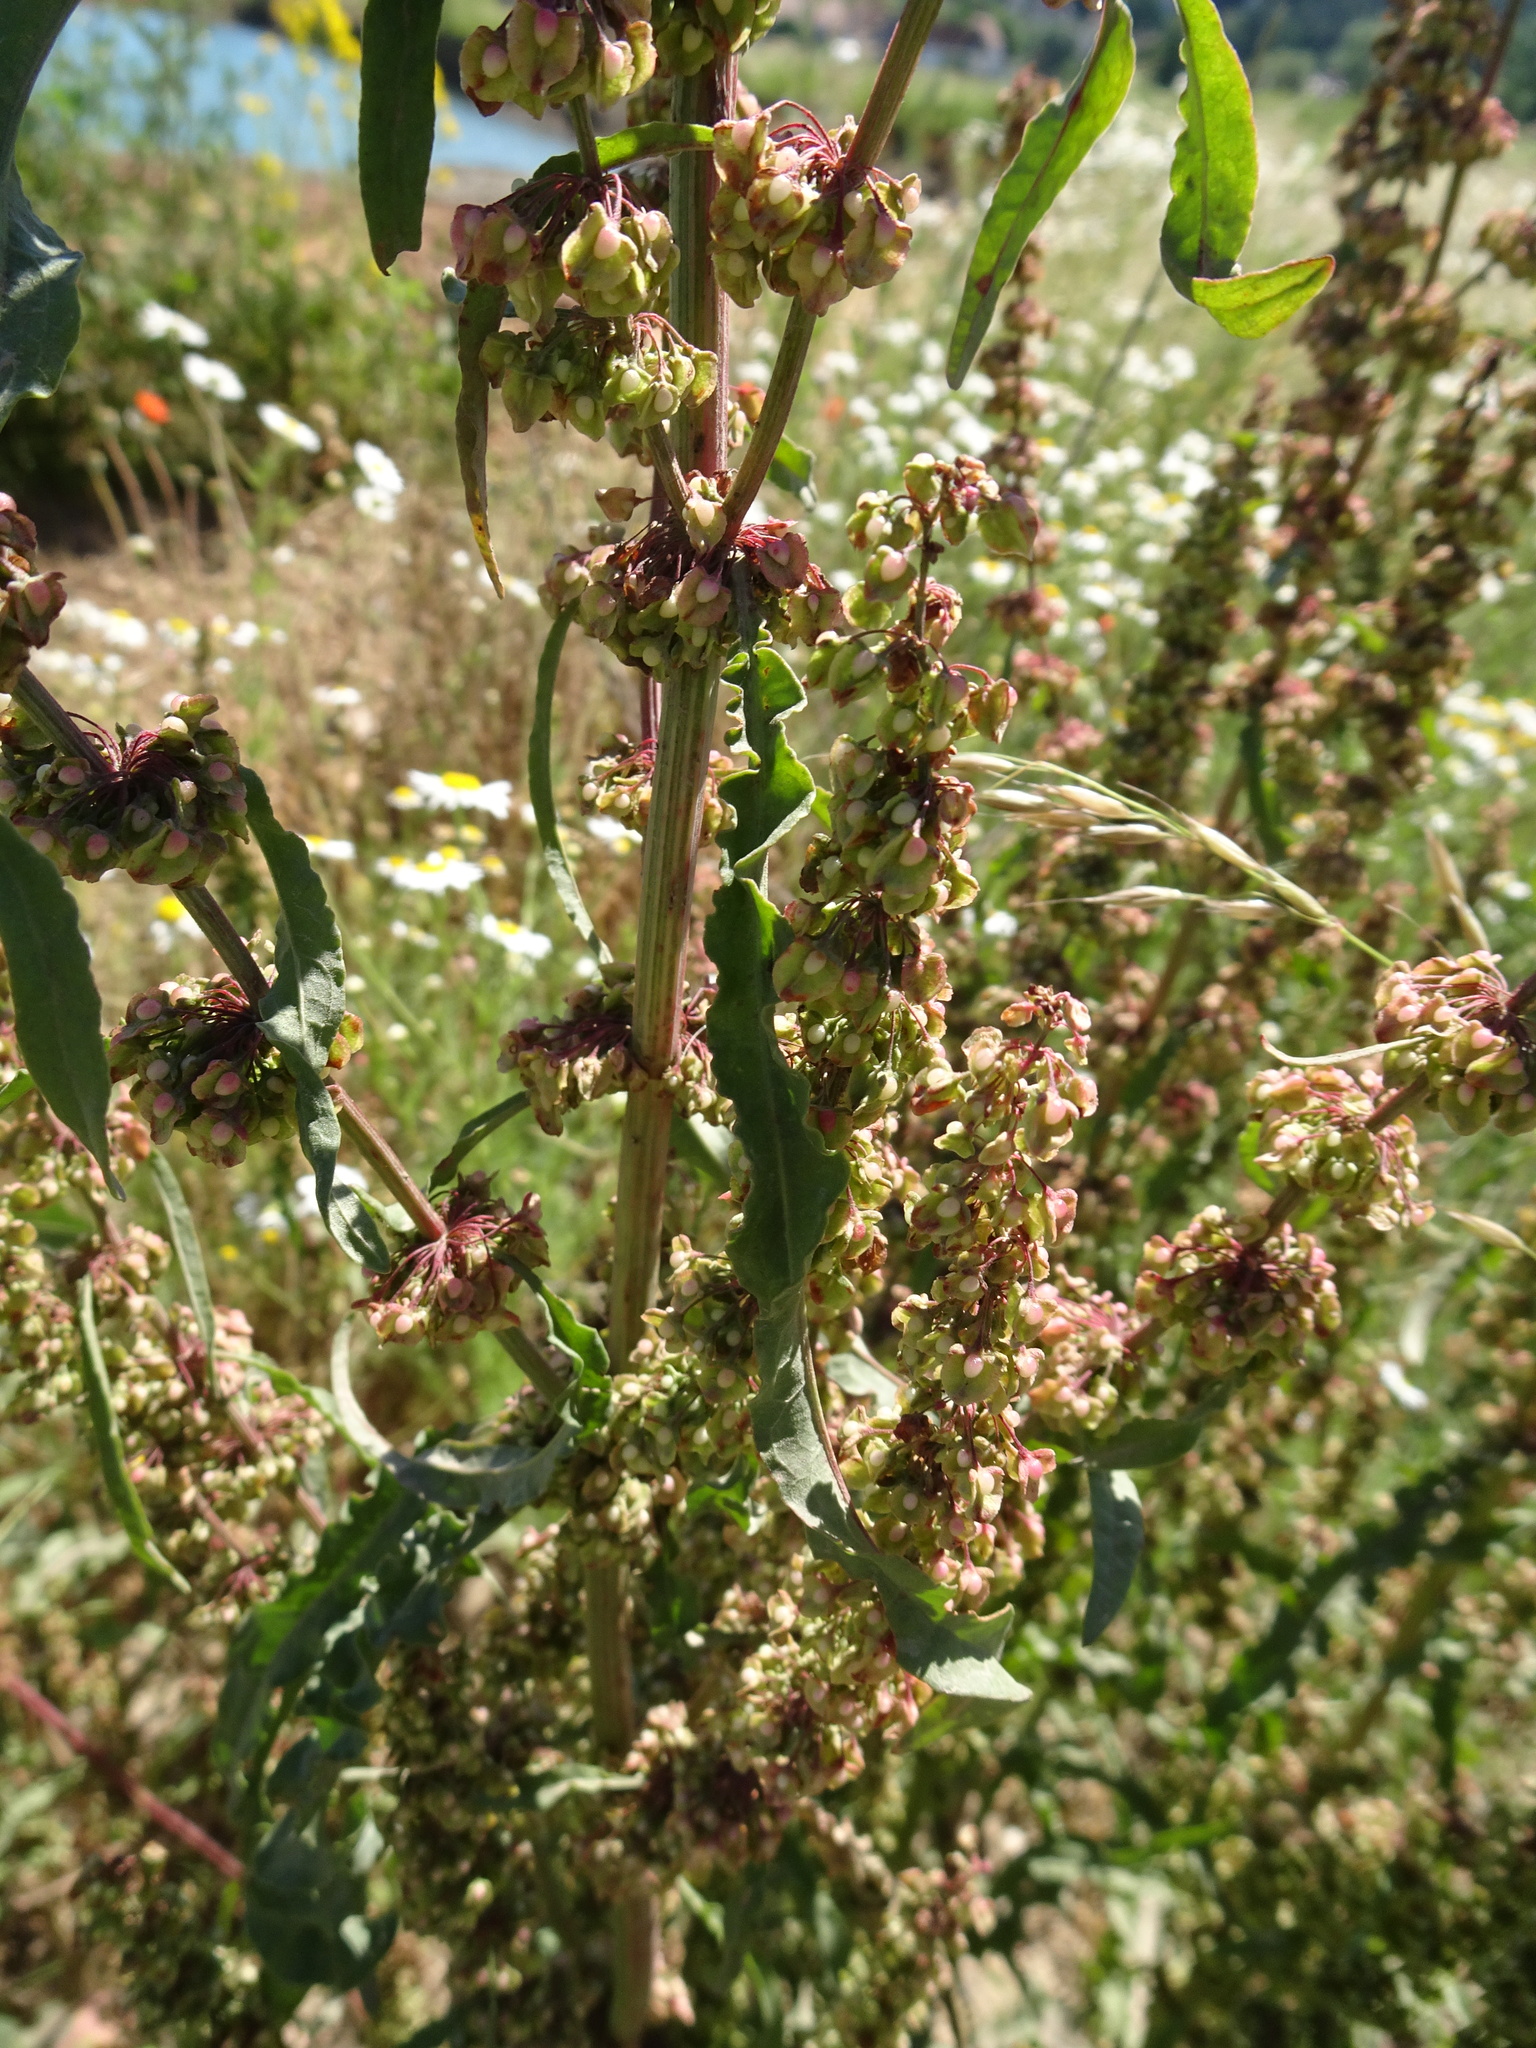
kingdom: Plantae
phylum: Tracheophyta
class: Magnoliopsida
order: Caryophyllales
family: Polygonaceae
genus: Rumex
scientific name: Rumex crispus
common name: Curled dock
